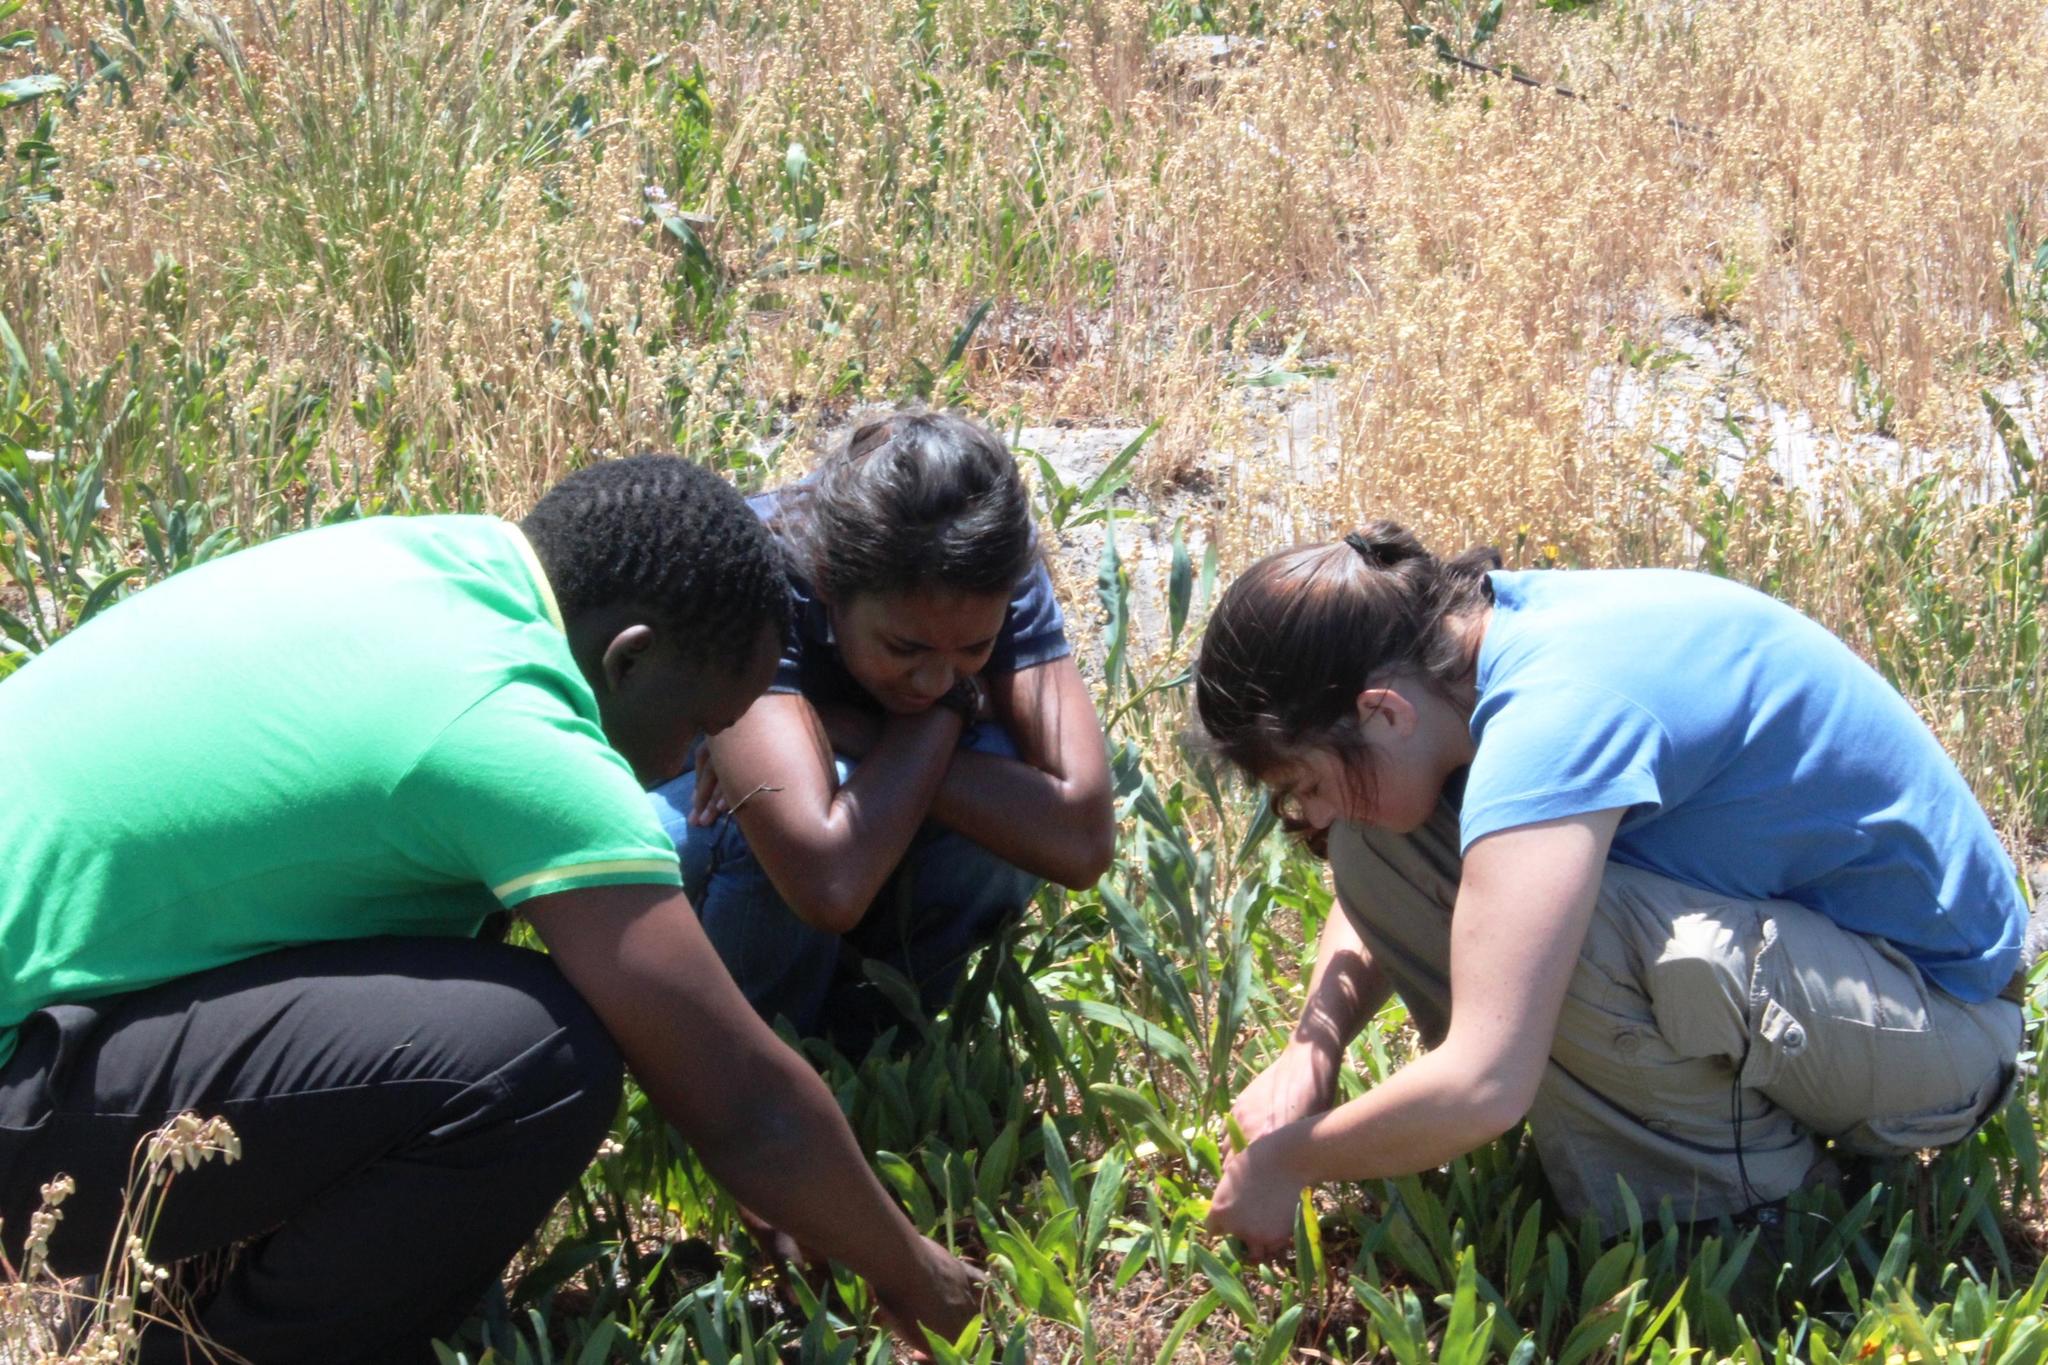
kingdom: Plantae
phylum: Tracheophyta
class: Liliopsida
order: Poales
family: Poaceae
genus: Briza
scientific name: Briza maxima
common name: Big quakinggrass
